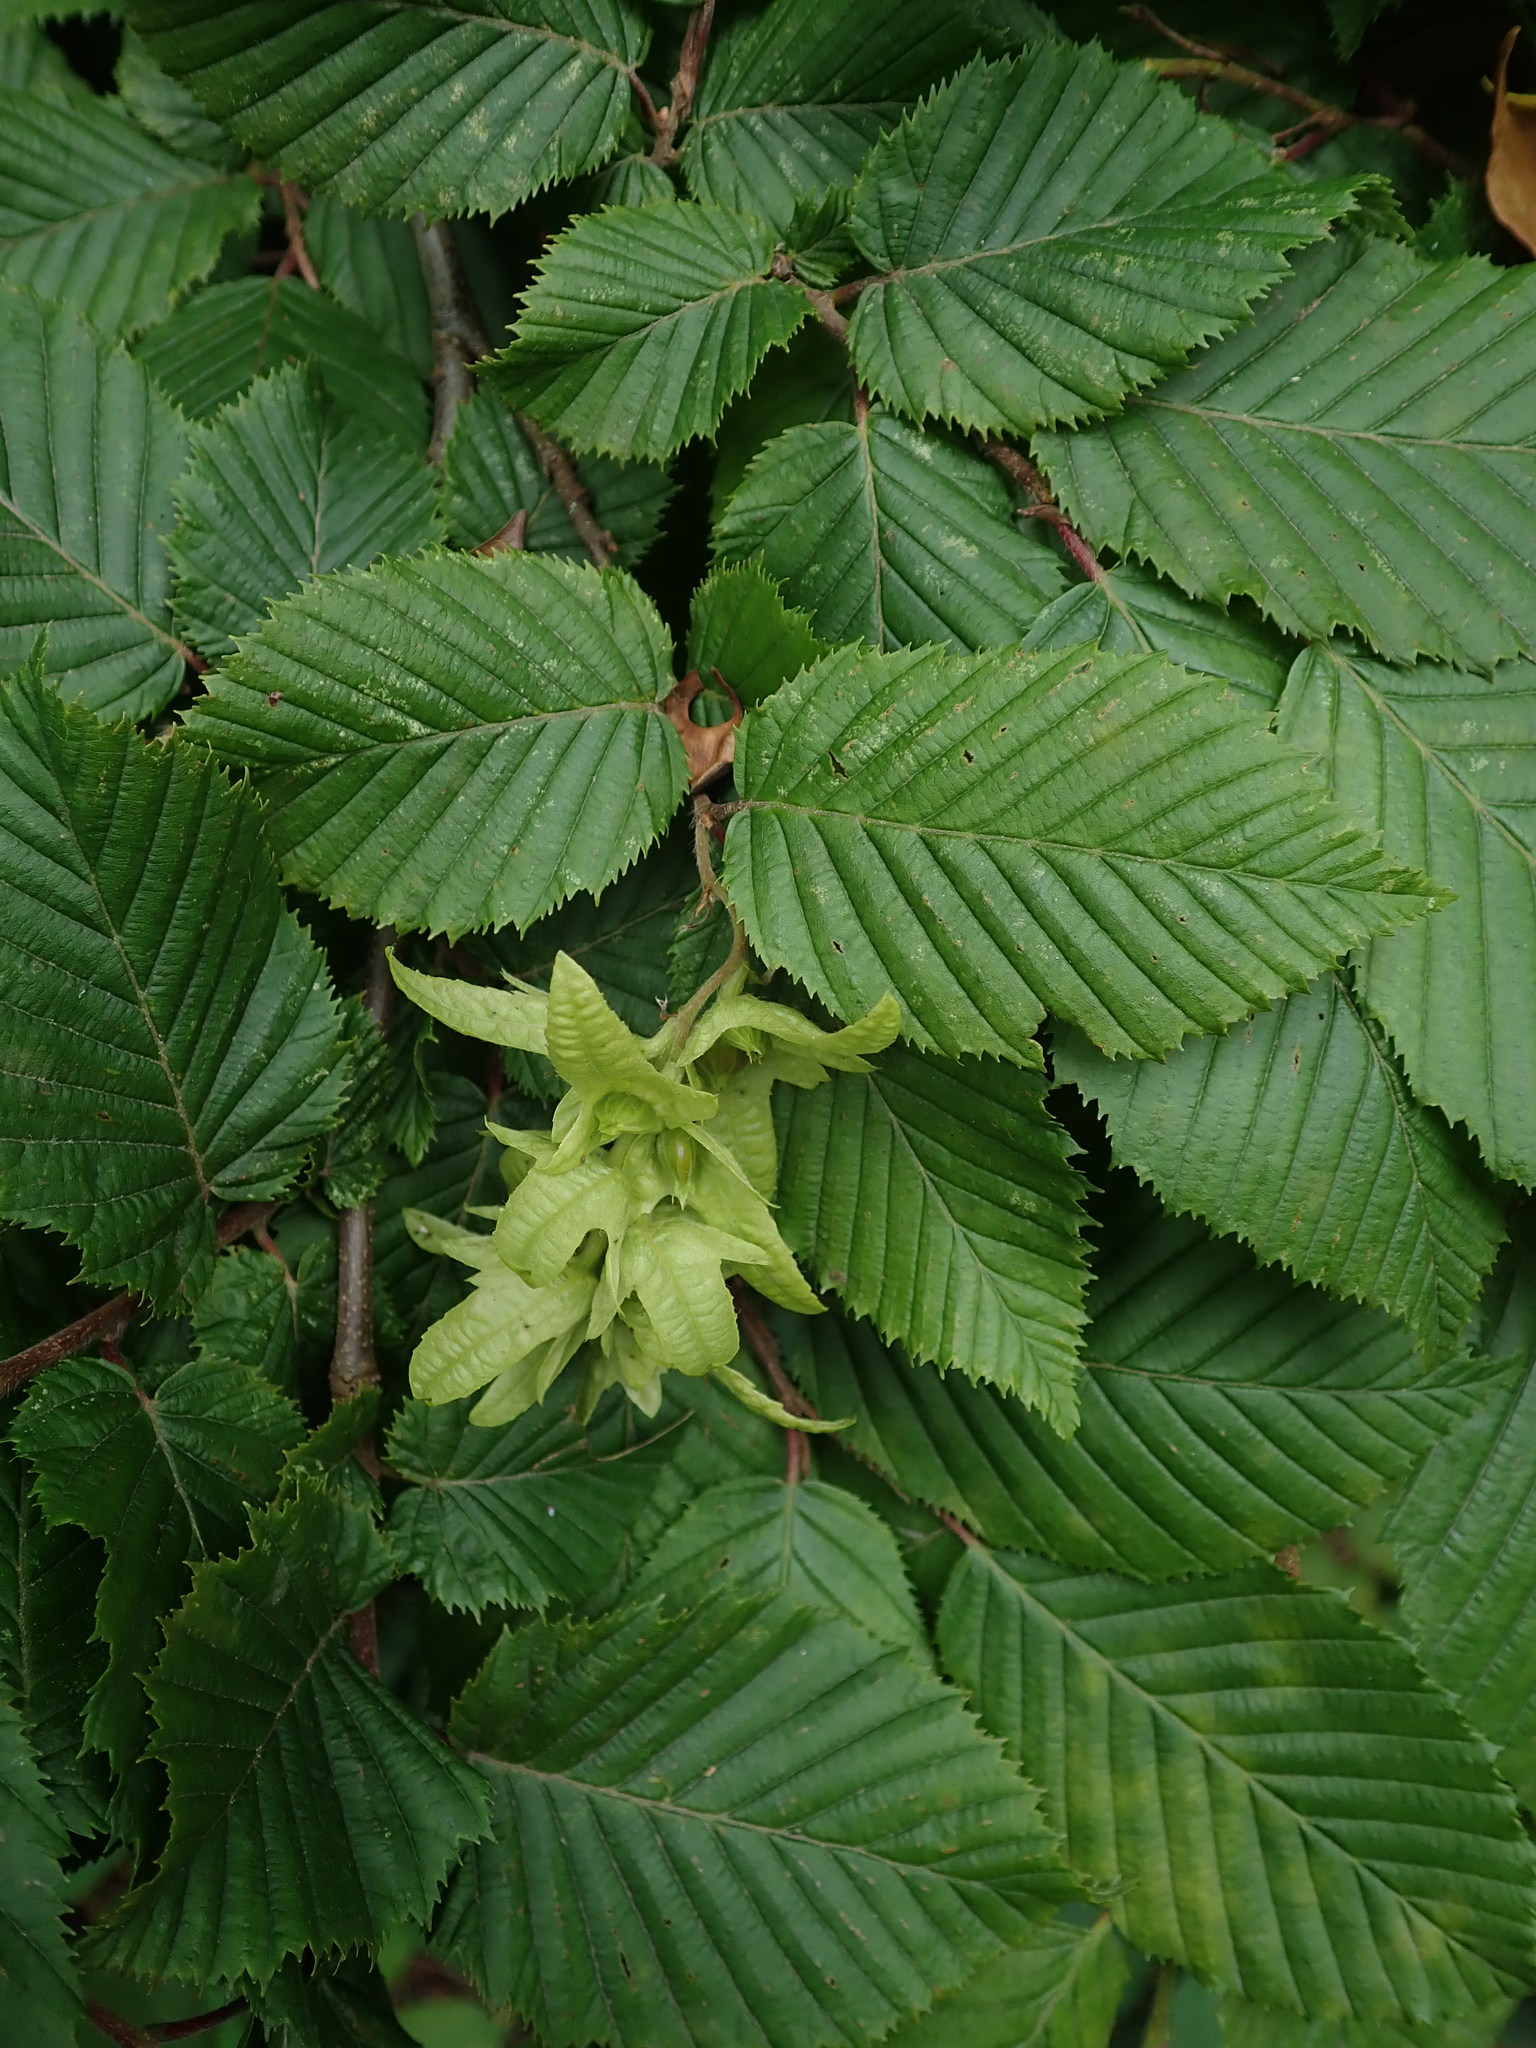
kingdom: Plantae
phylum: Tracheophyta
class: Magnoliopsida
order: Fagales
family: Betulaceae
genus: Carpinus
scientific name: Carpinus betulus
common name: Hornbeam
